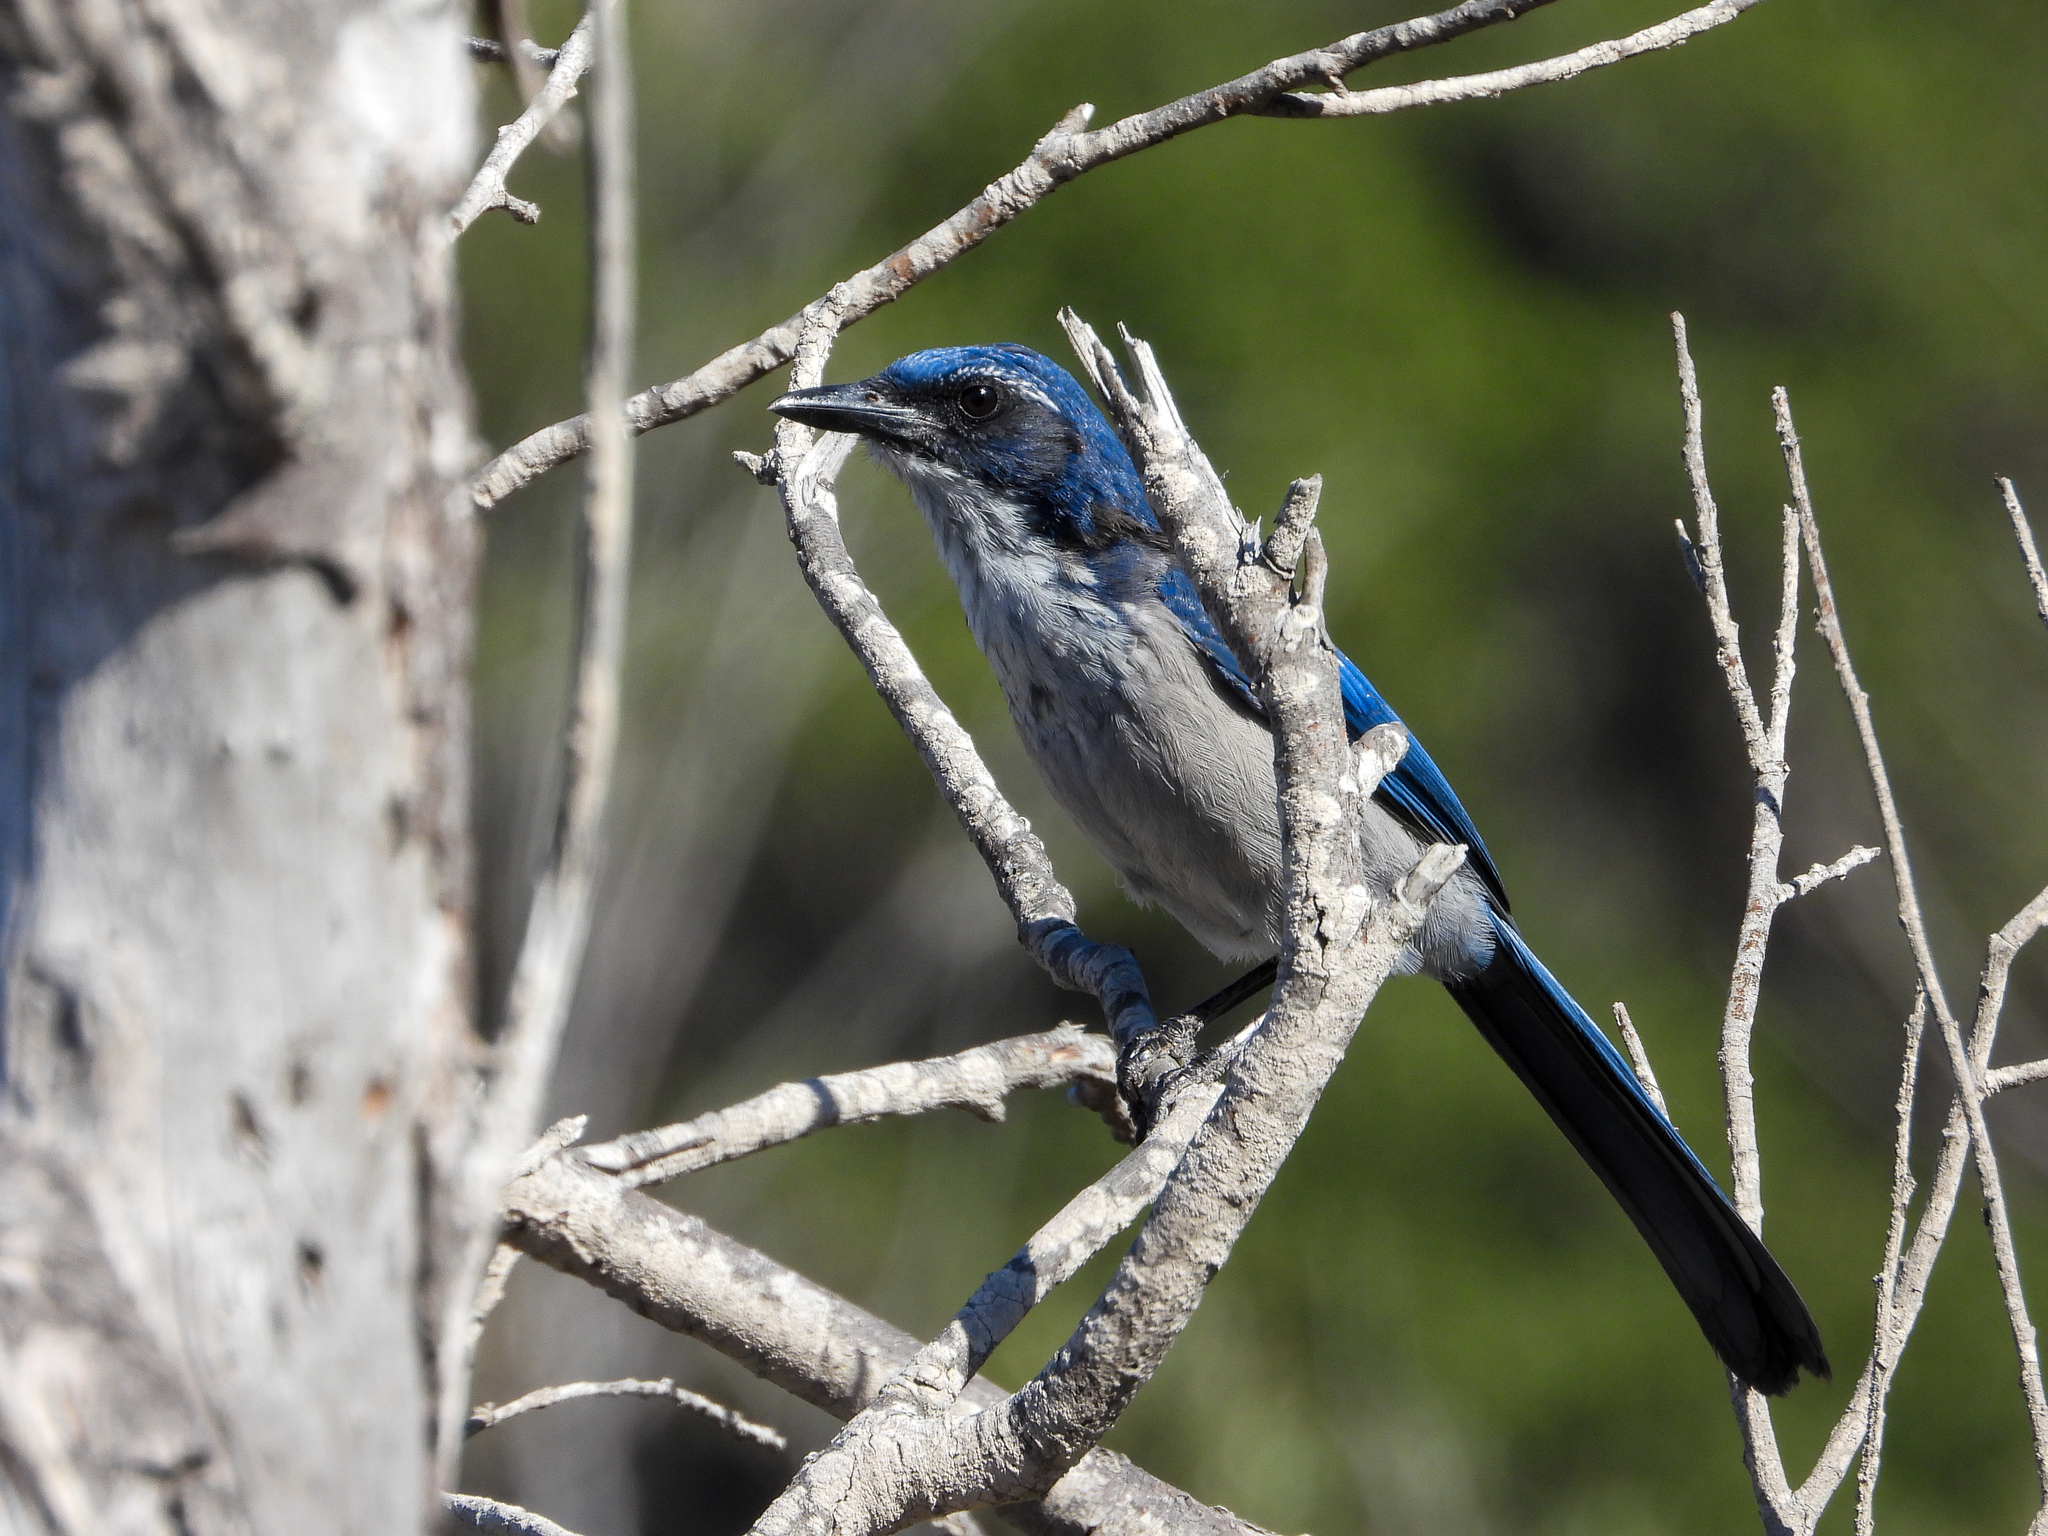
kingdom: Animalia
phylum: Chordata
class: Aves
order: Passeriformes
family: Corvidae
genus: Aphelocoma
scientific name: Aphelocoma insularis
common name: Island scrub-jay
